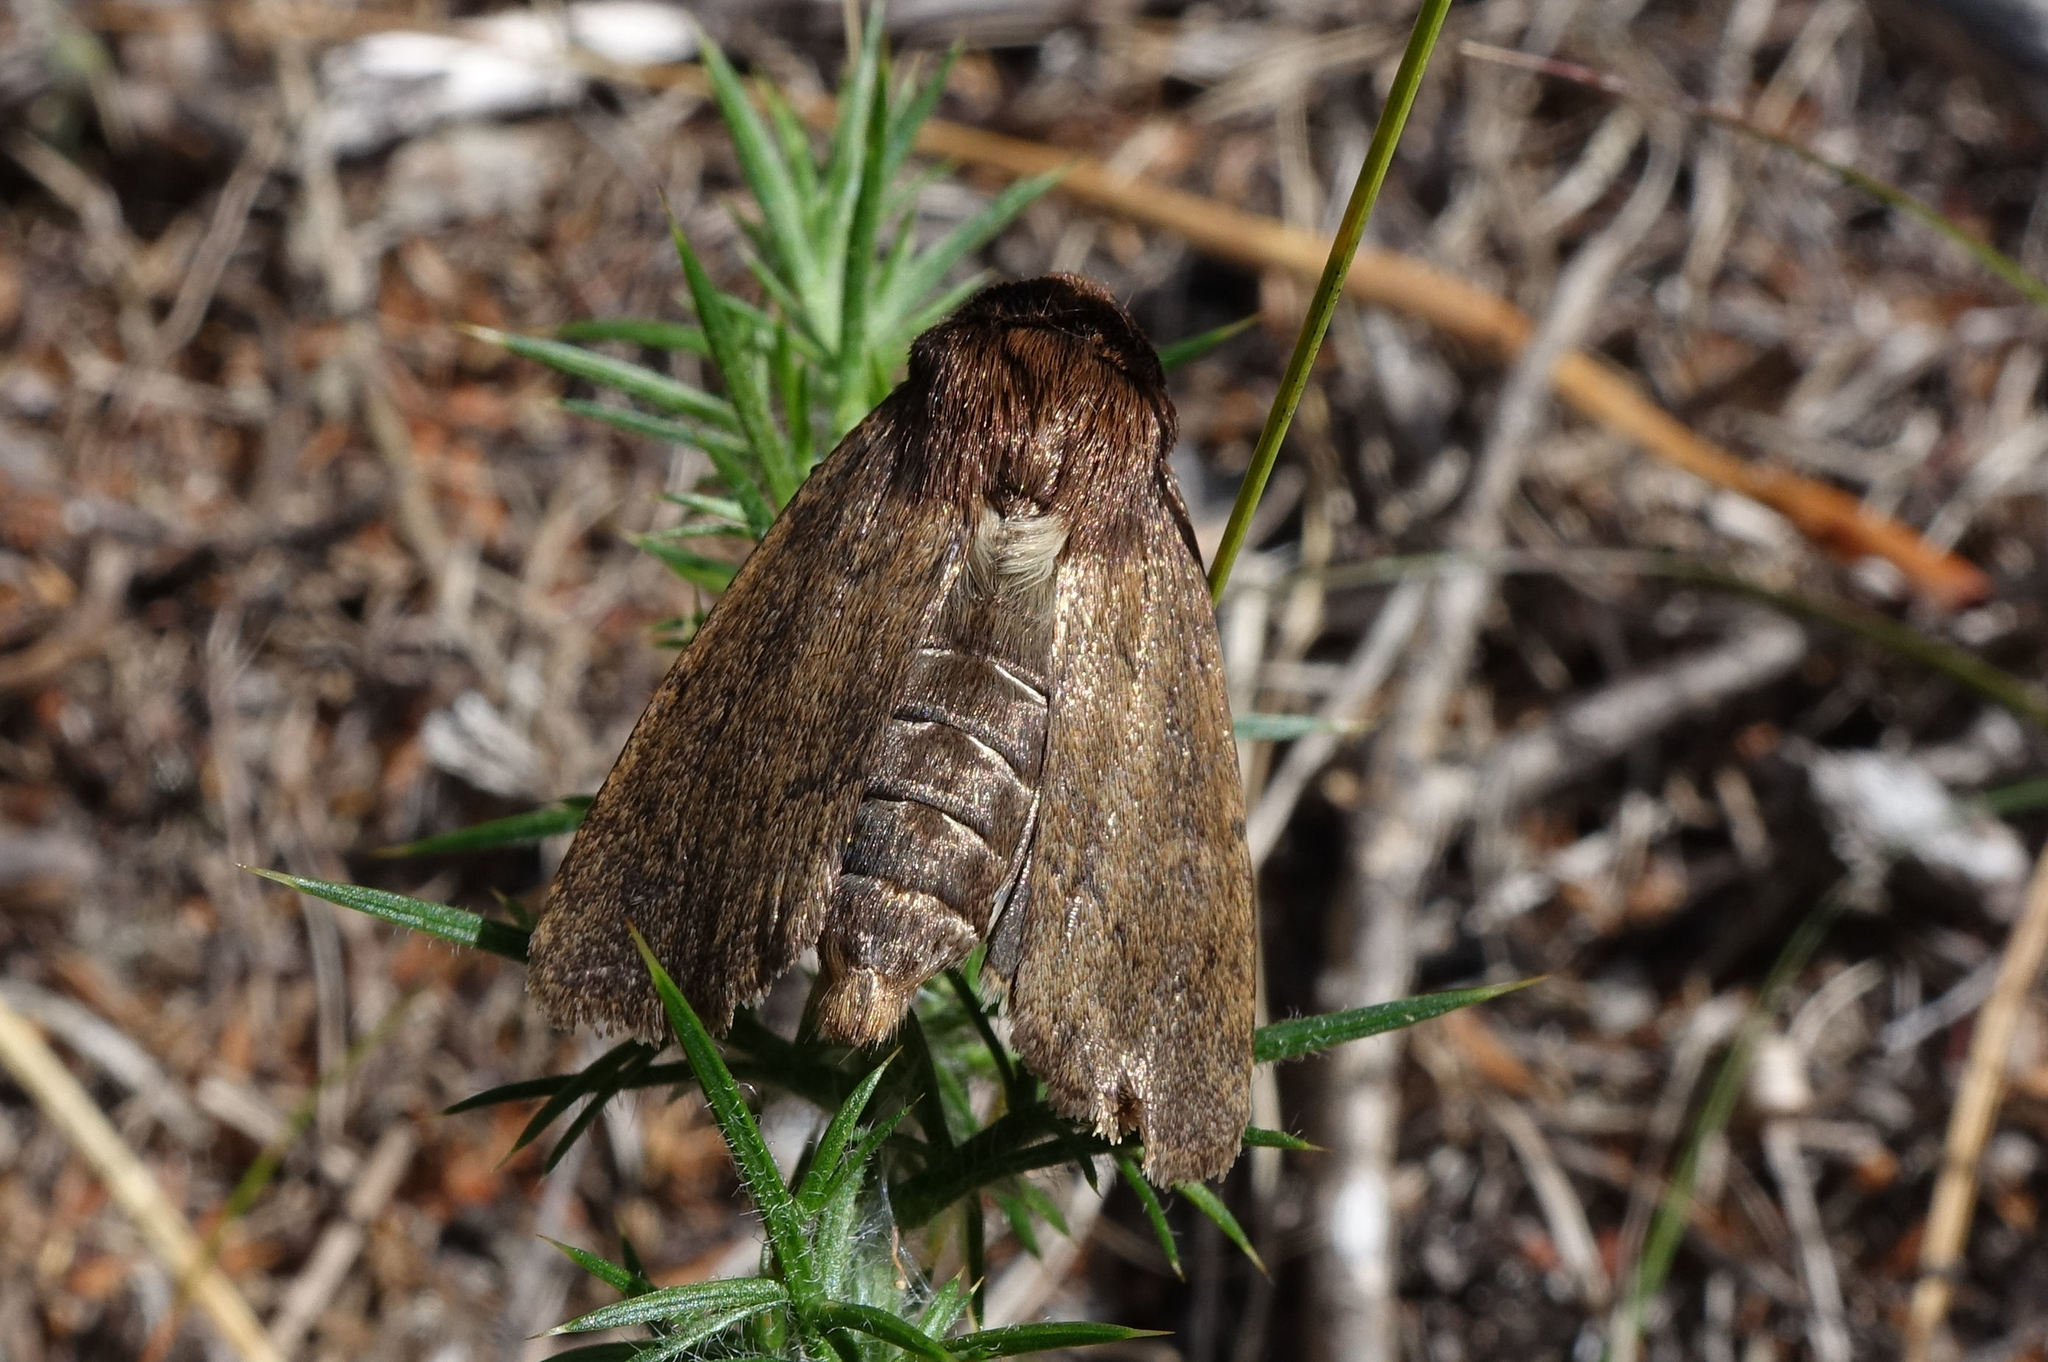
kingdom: Animalia
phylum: Arthropoda
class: Insecta
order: Lepidoptera
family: Noctuidae
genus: Bityla
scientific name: Bityla defigurata
